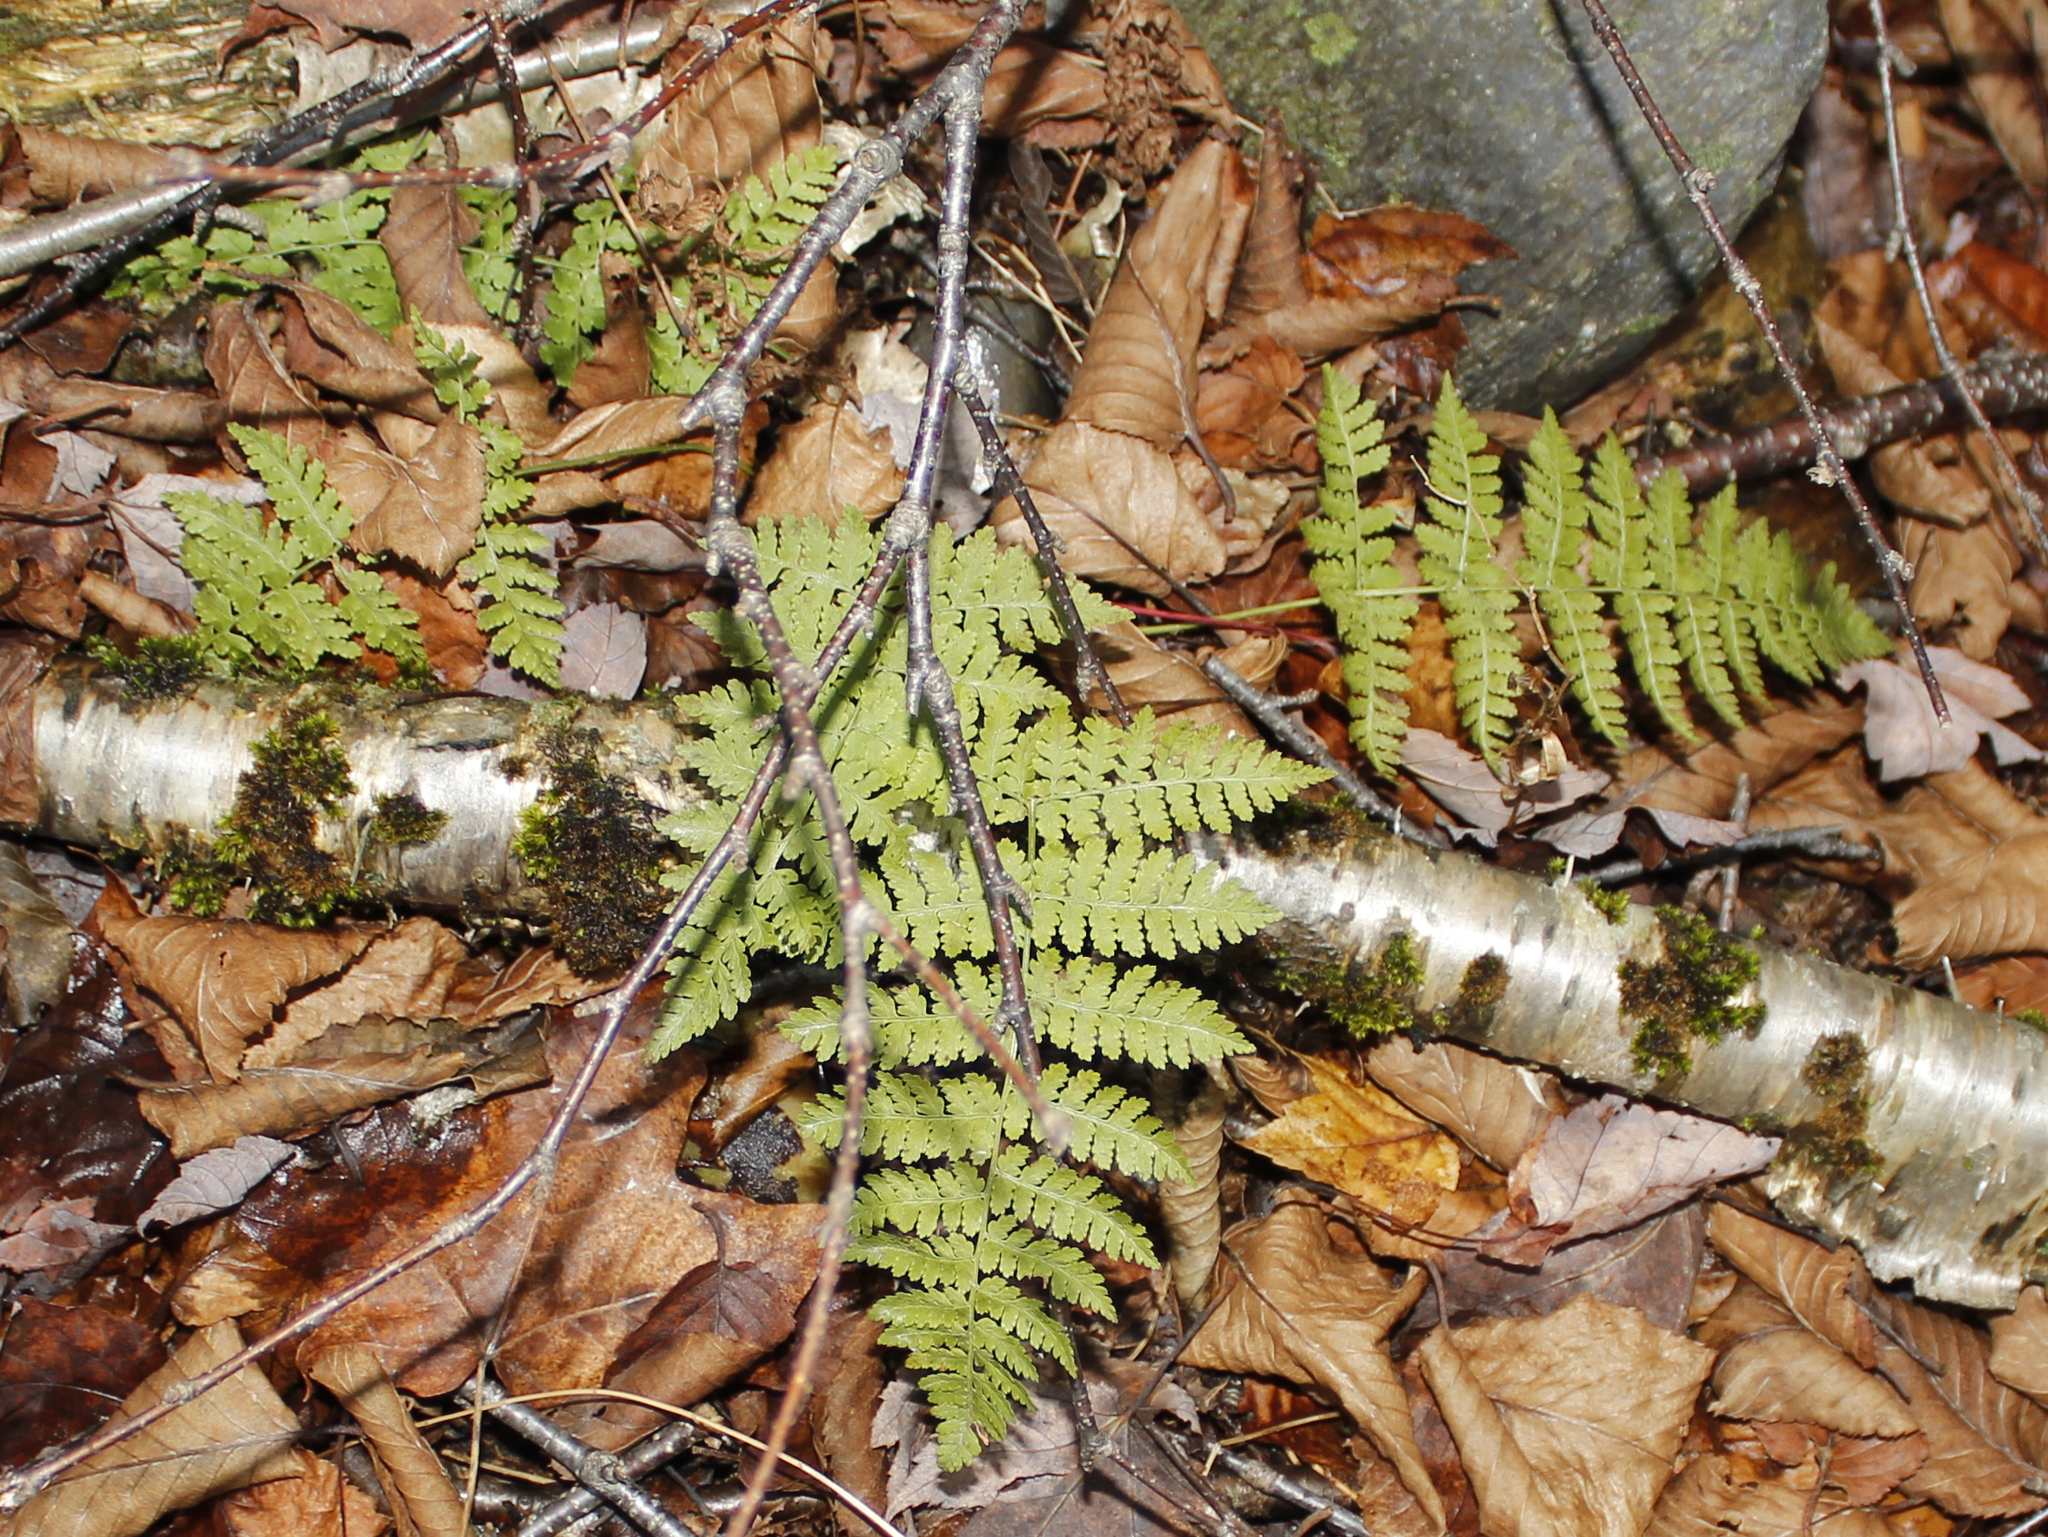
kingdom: Plantae
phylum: Tracheophyta
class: Polypodiopsida
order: Polypodiales
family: Dryopteridaceae
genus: Dryopteris
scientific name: Dryopteris intermedia
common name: Evergreen wood fern
